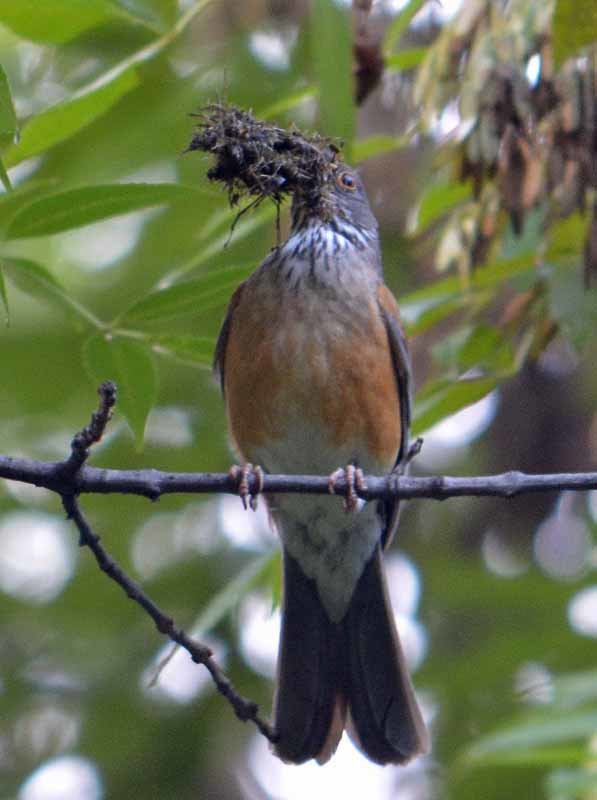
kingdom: Animalia
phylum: Chordata
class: Aves
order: Passeriformes
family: Turdidae
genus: Turdus
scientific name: Turdus rufopalliatus
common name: Rufous-backed robin
